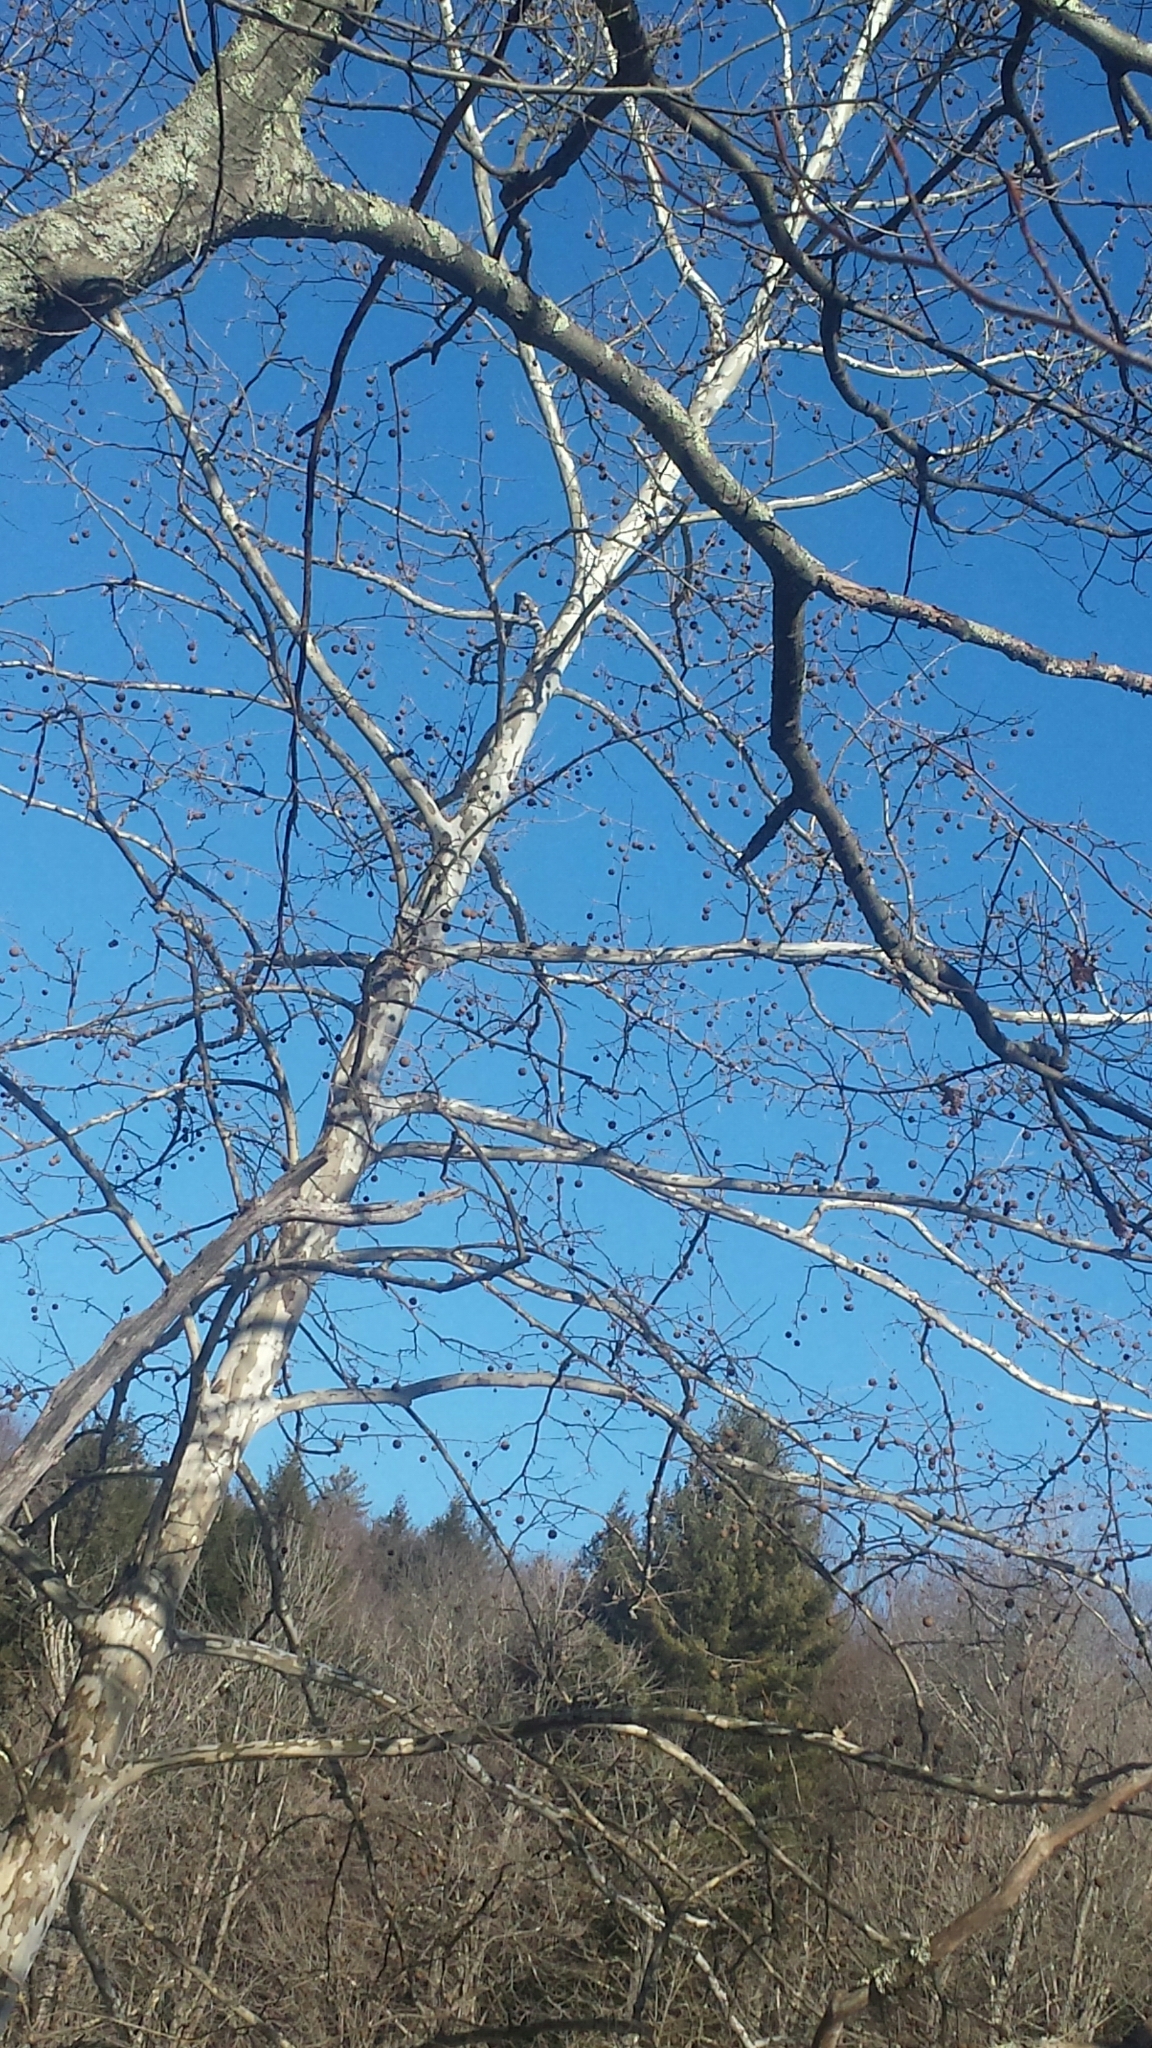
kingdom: Plantae
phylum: Tracheophyta
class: Magnoliopsida
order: Proteales
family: Platanaceae
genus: Platanus
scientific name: Platanus occidentalis
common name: American sycamore
